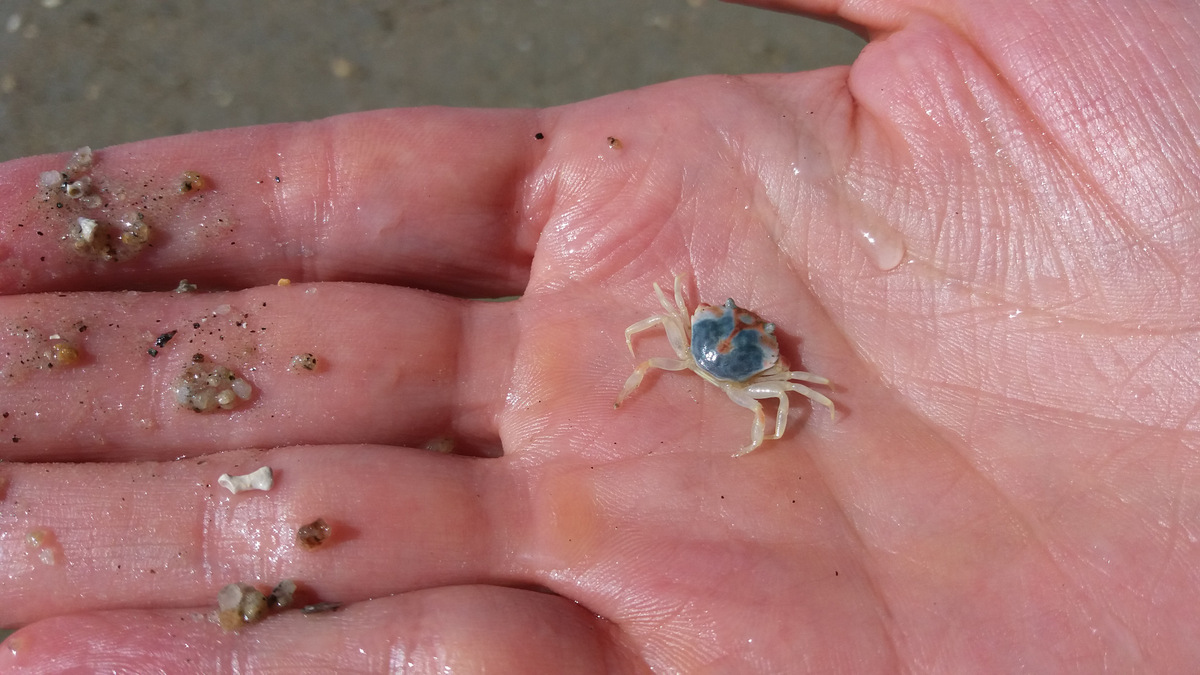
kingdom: Animalia
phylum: Arthropoda
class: Malacostraca
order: Decapoda
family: Carcinidae
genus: Carcinus
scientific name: Carcinus maenas
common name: European green crab
